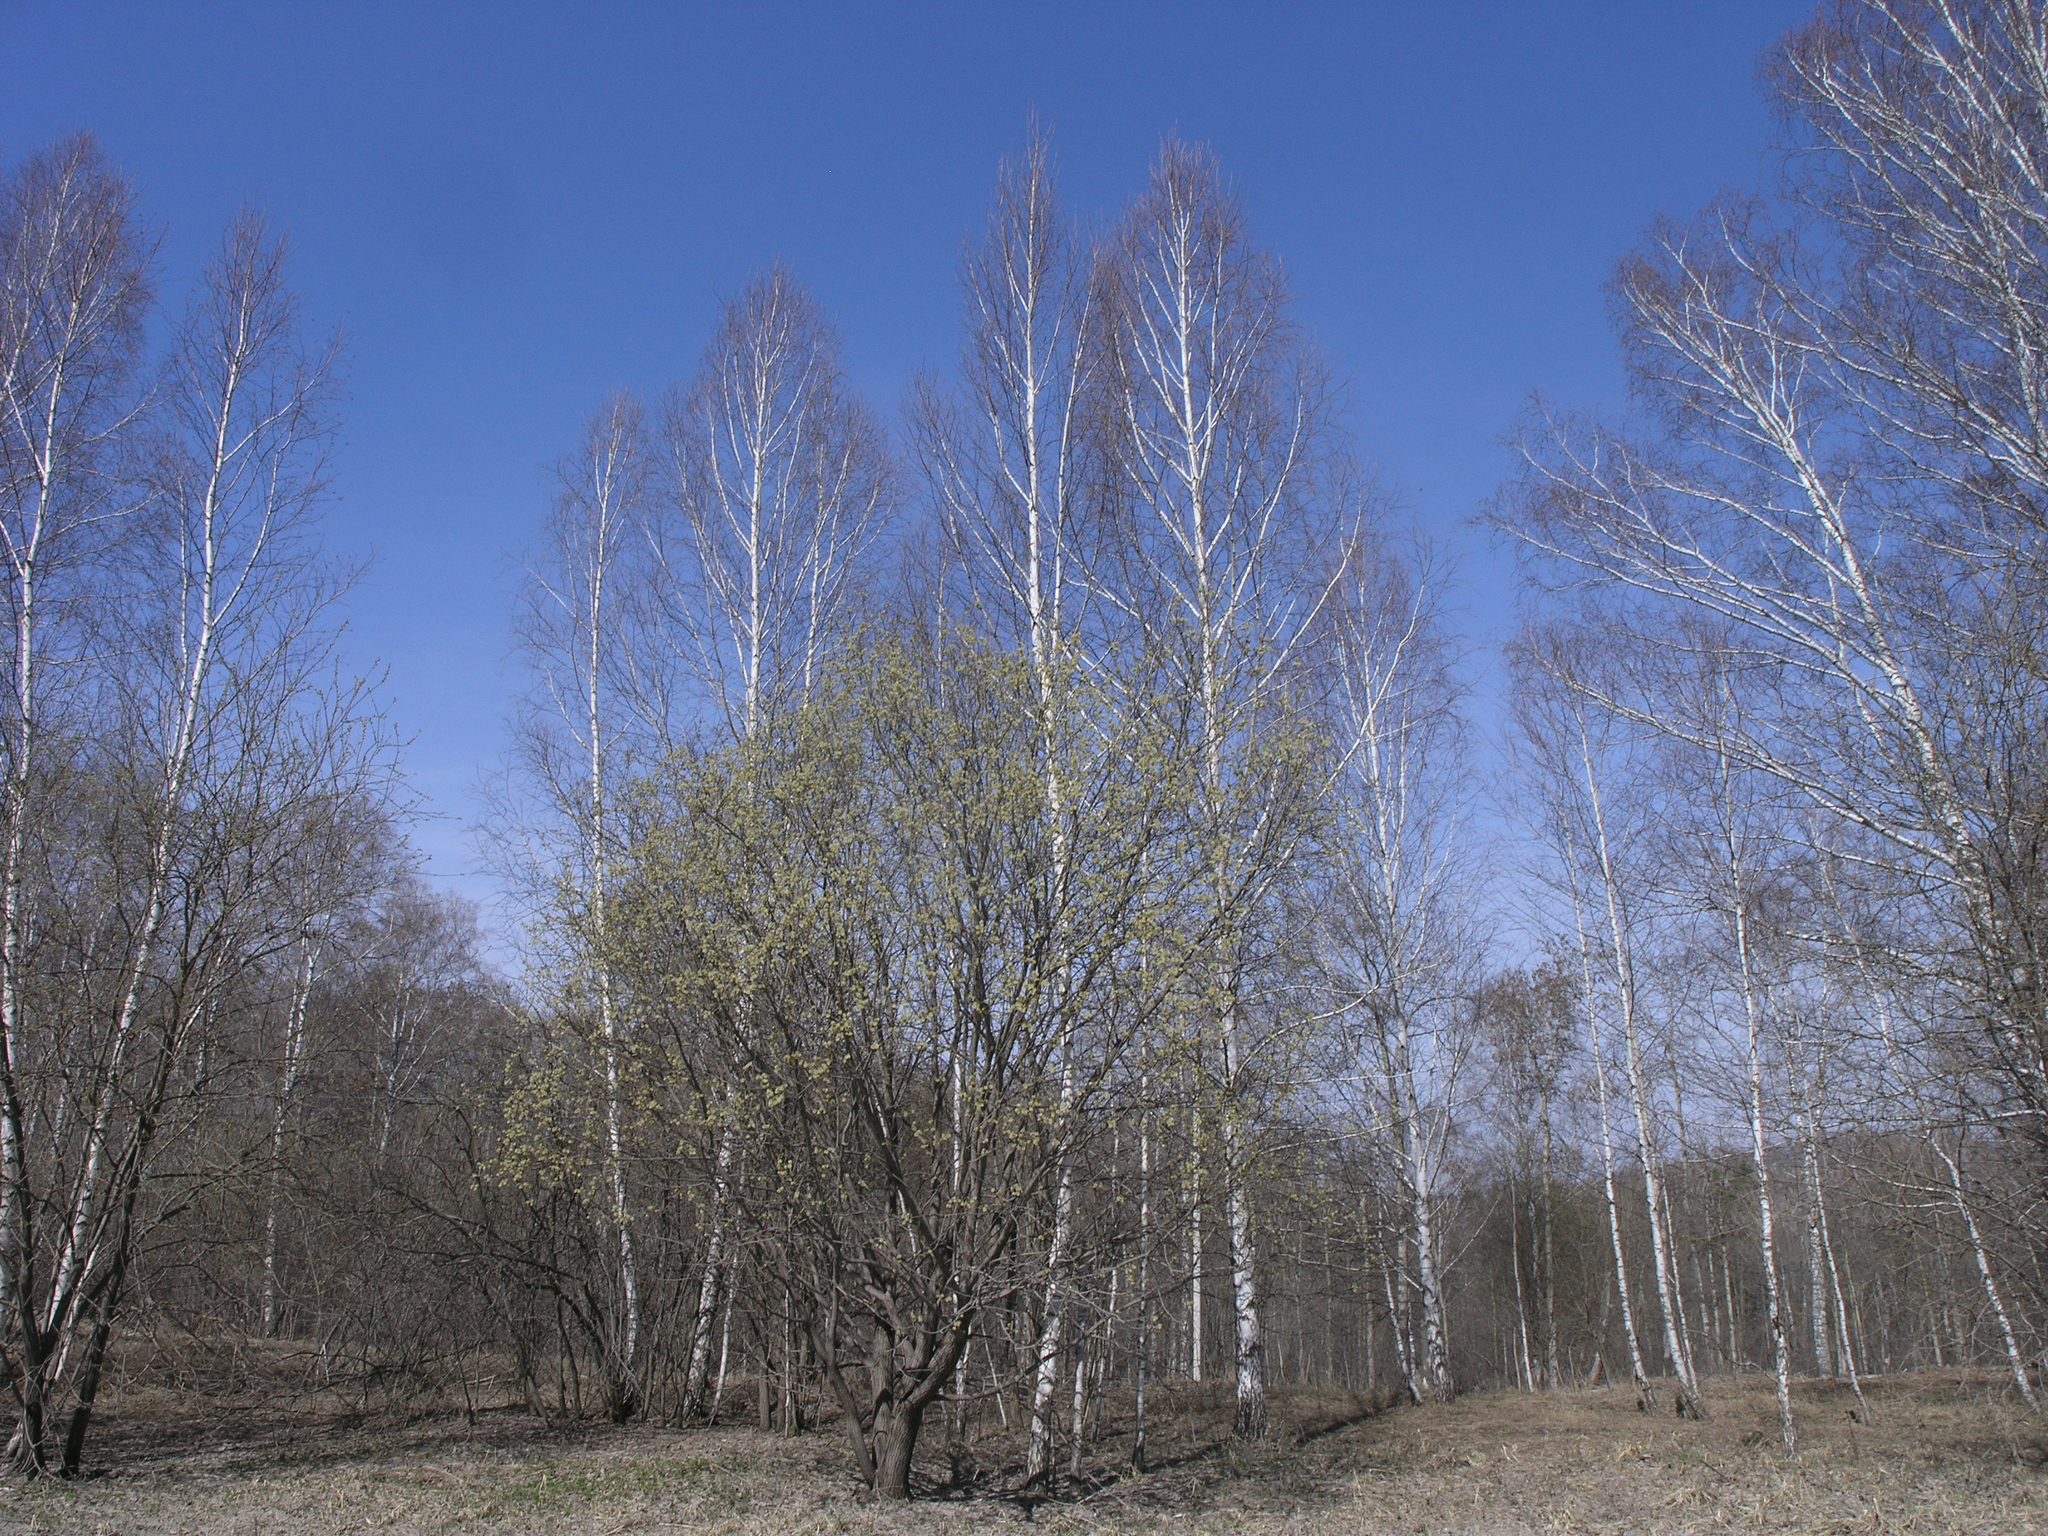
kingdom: Plantae
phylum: Tracheophyta
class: Magnoliopsida
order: Malpighiales
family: Salicaceae
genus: Salix
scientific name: Salix caprea
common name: Goat willow
